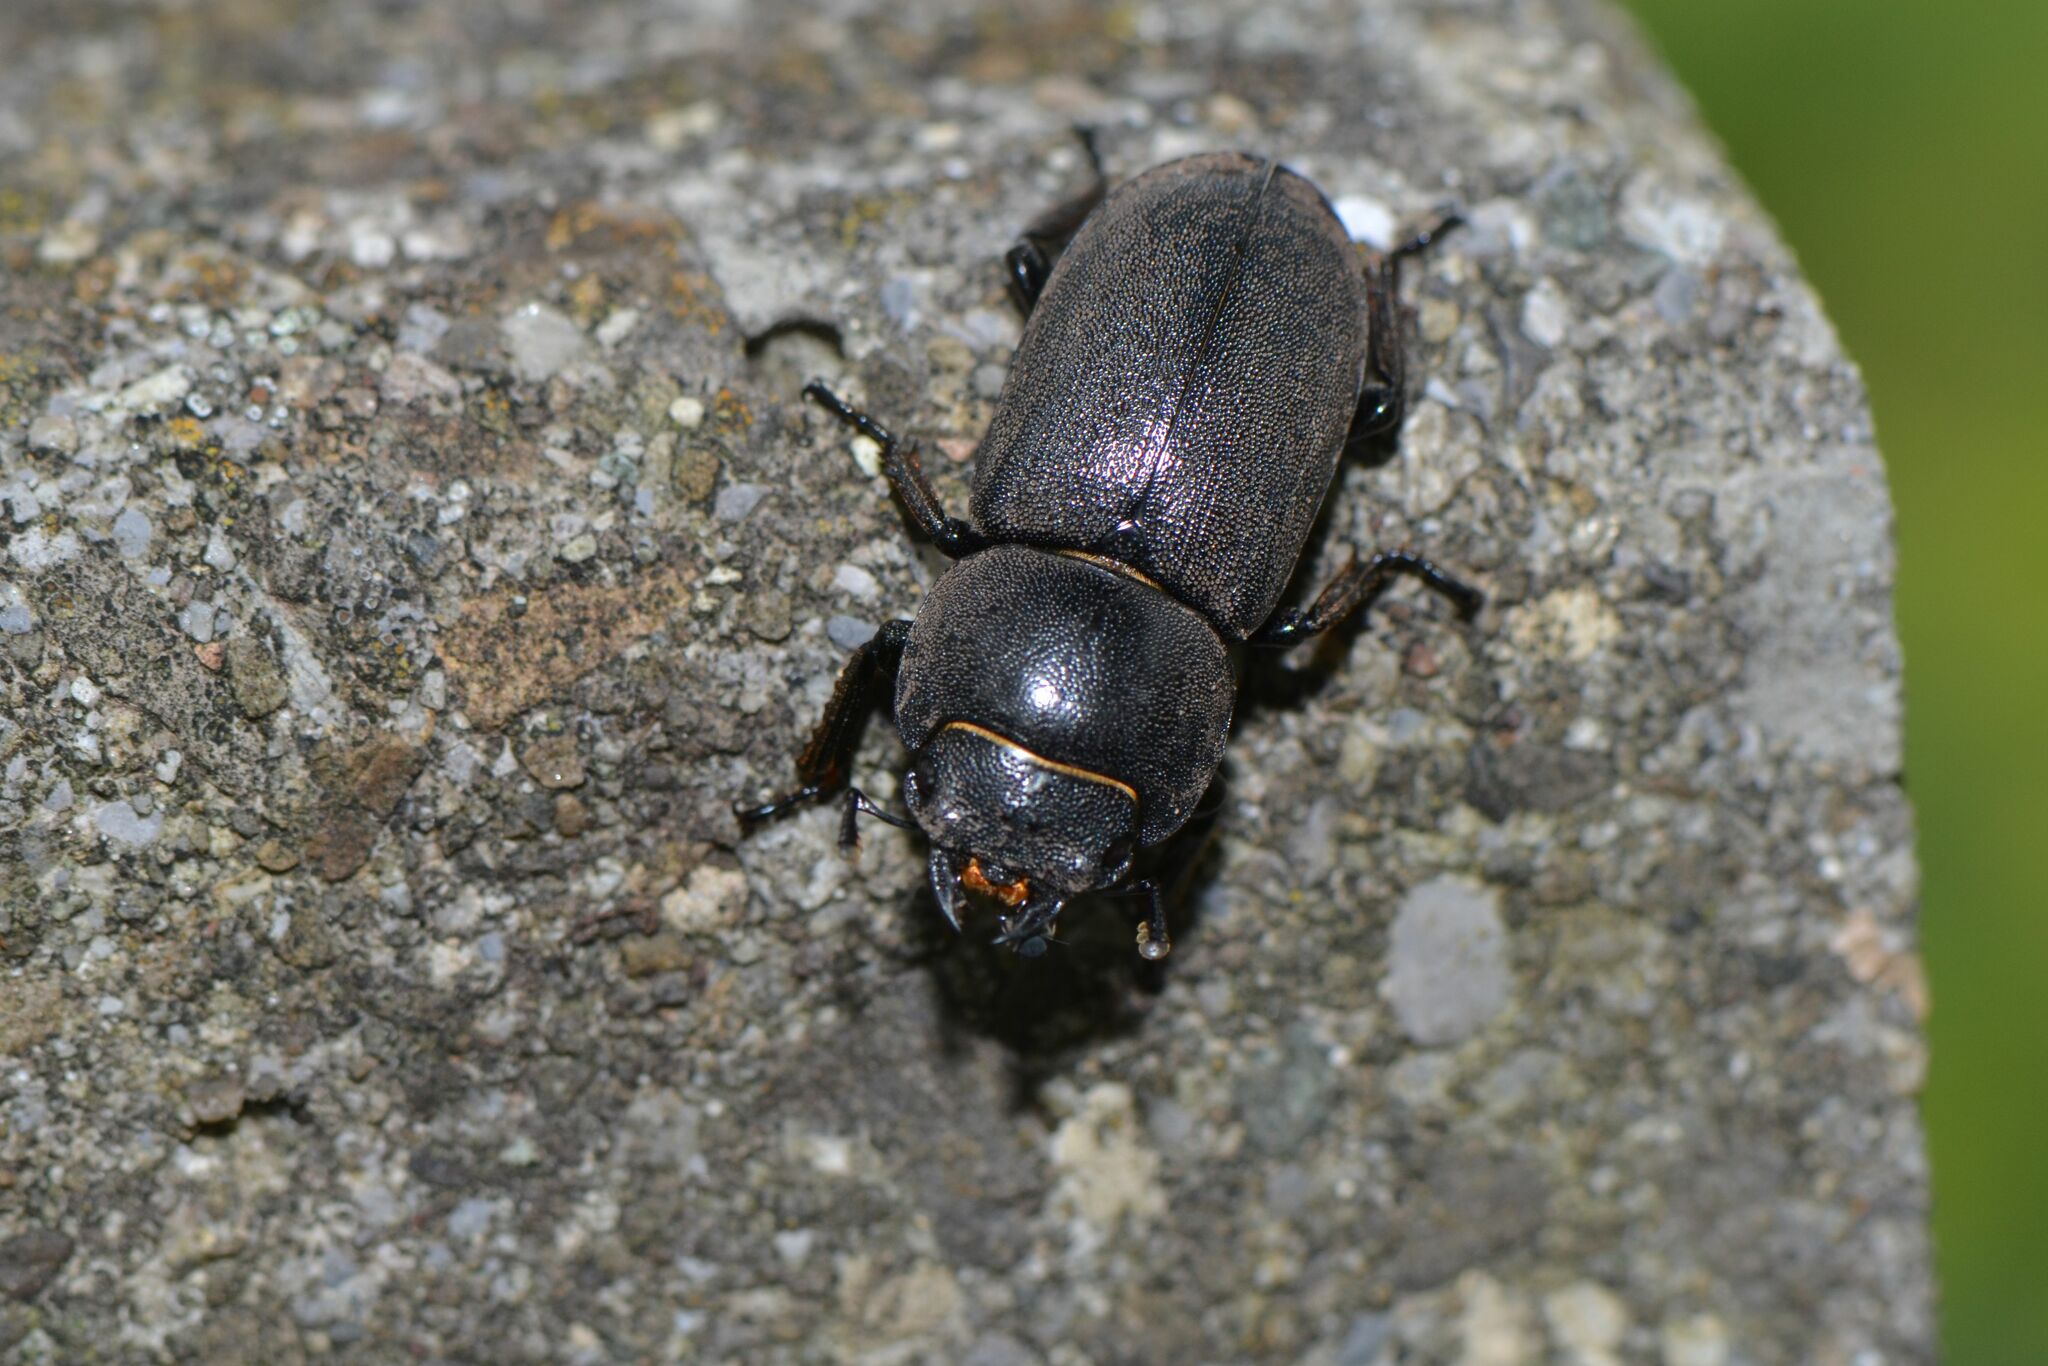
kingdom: Animalia
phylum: Arthropoda
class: Insecta
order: Coleoptera
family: Lucanidae
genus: Dorcus
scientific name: Dorcus parallelipipedus
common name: Lesser stag beetle
